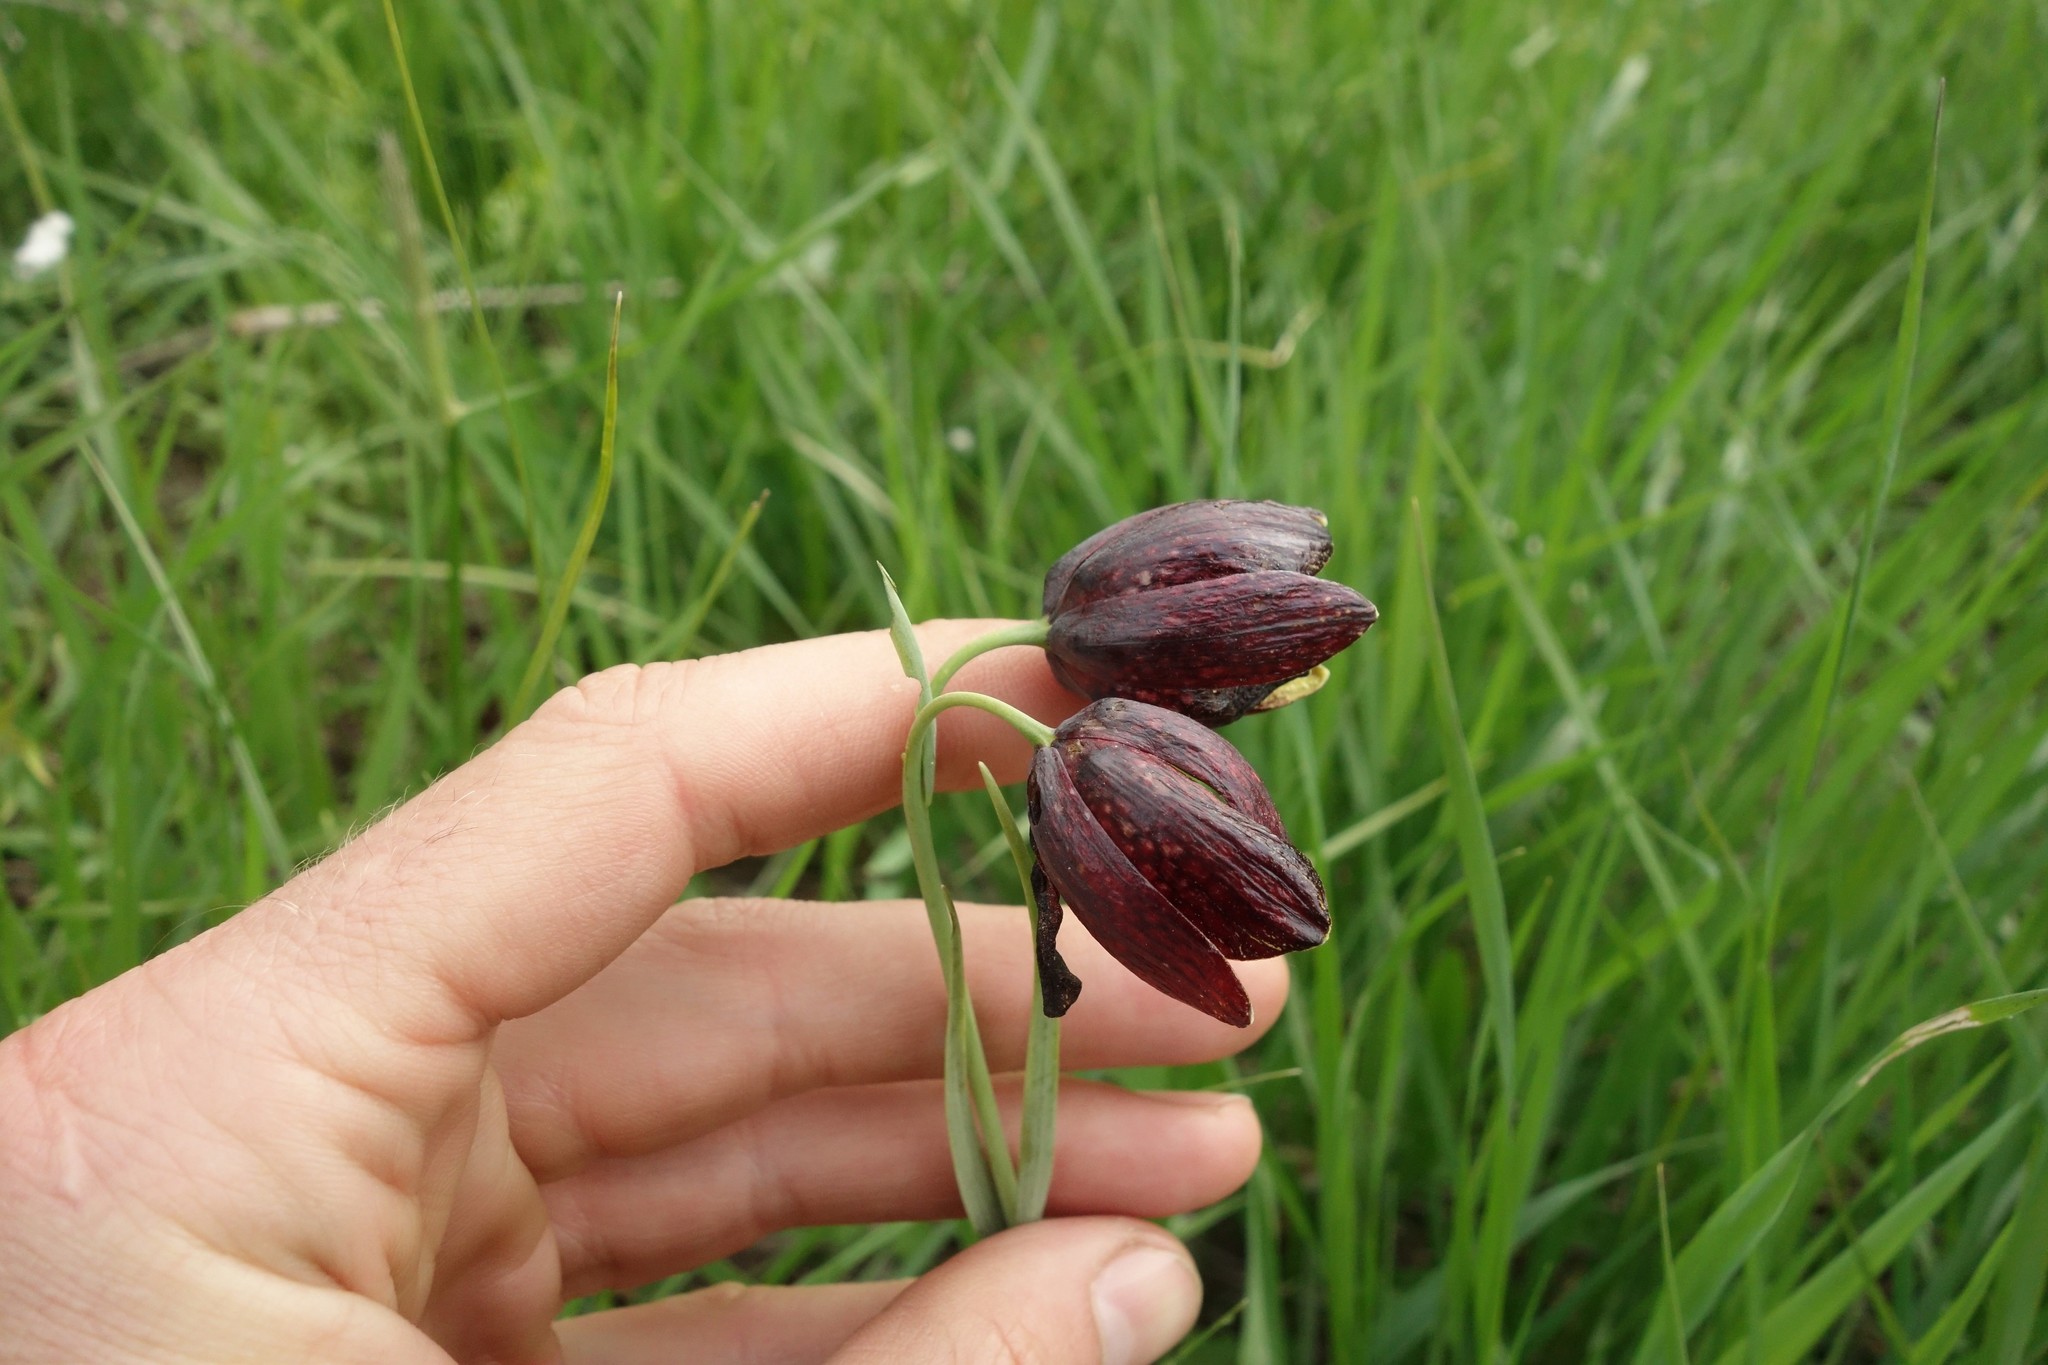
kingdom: Plantae
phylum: Tracheophyta
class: Liliopsida
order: Liliales
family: Liliaceae
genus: Fritillaria
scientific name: Fritillaria meleagroides
